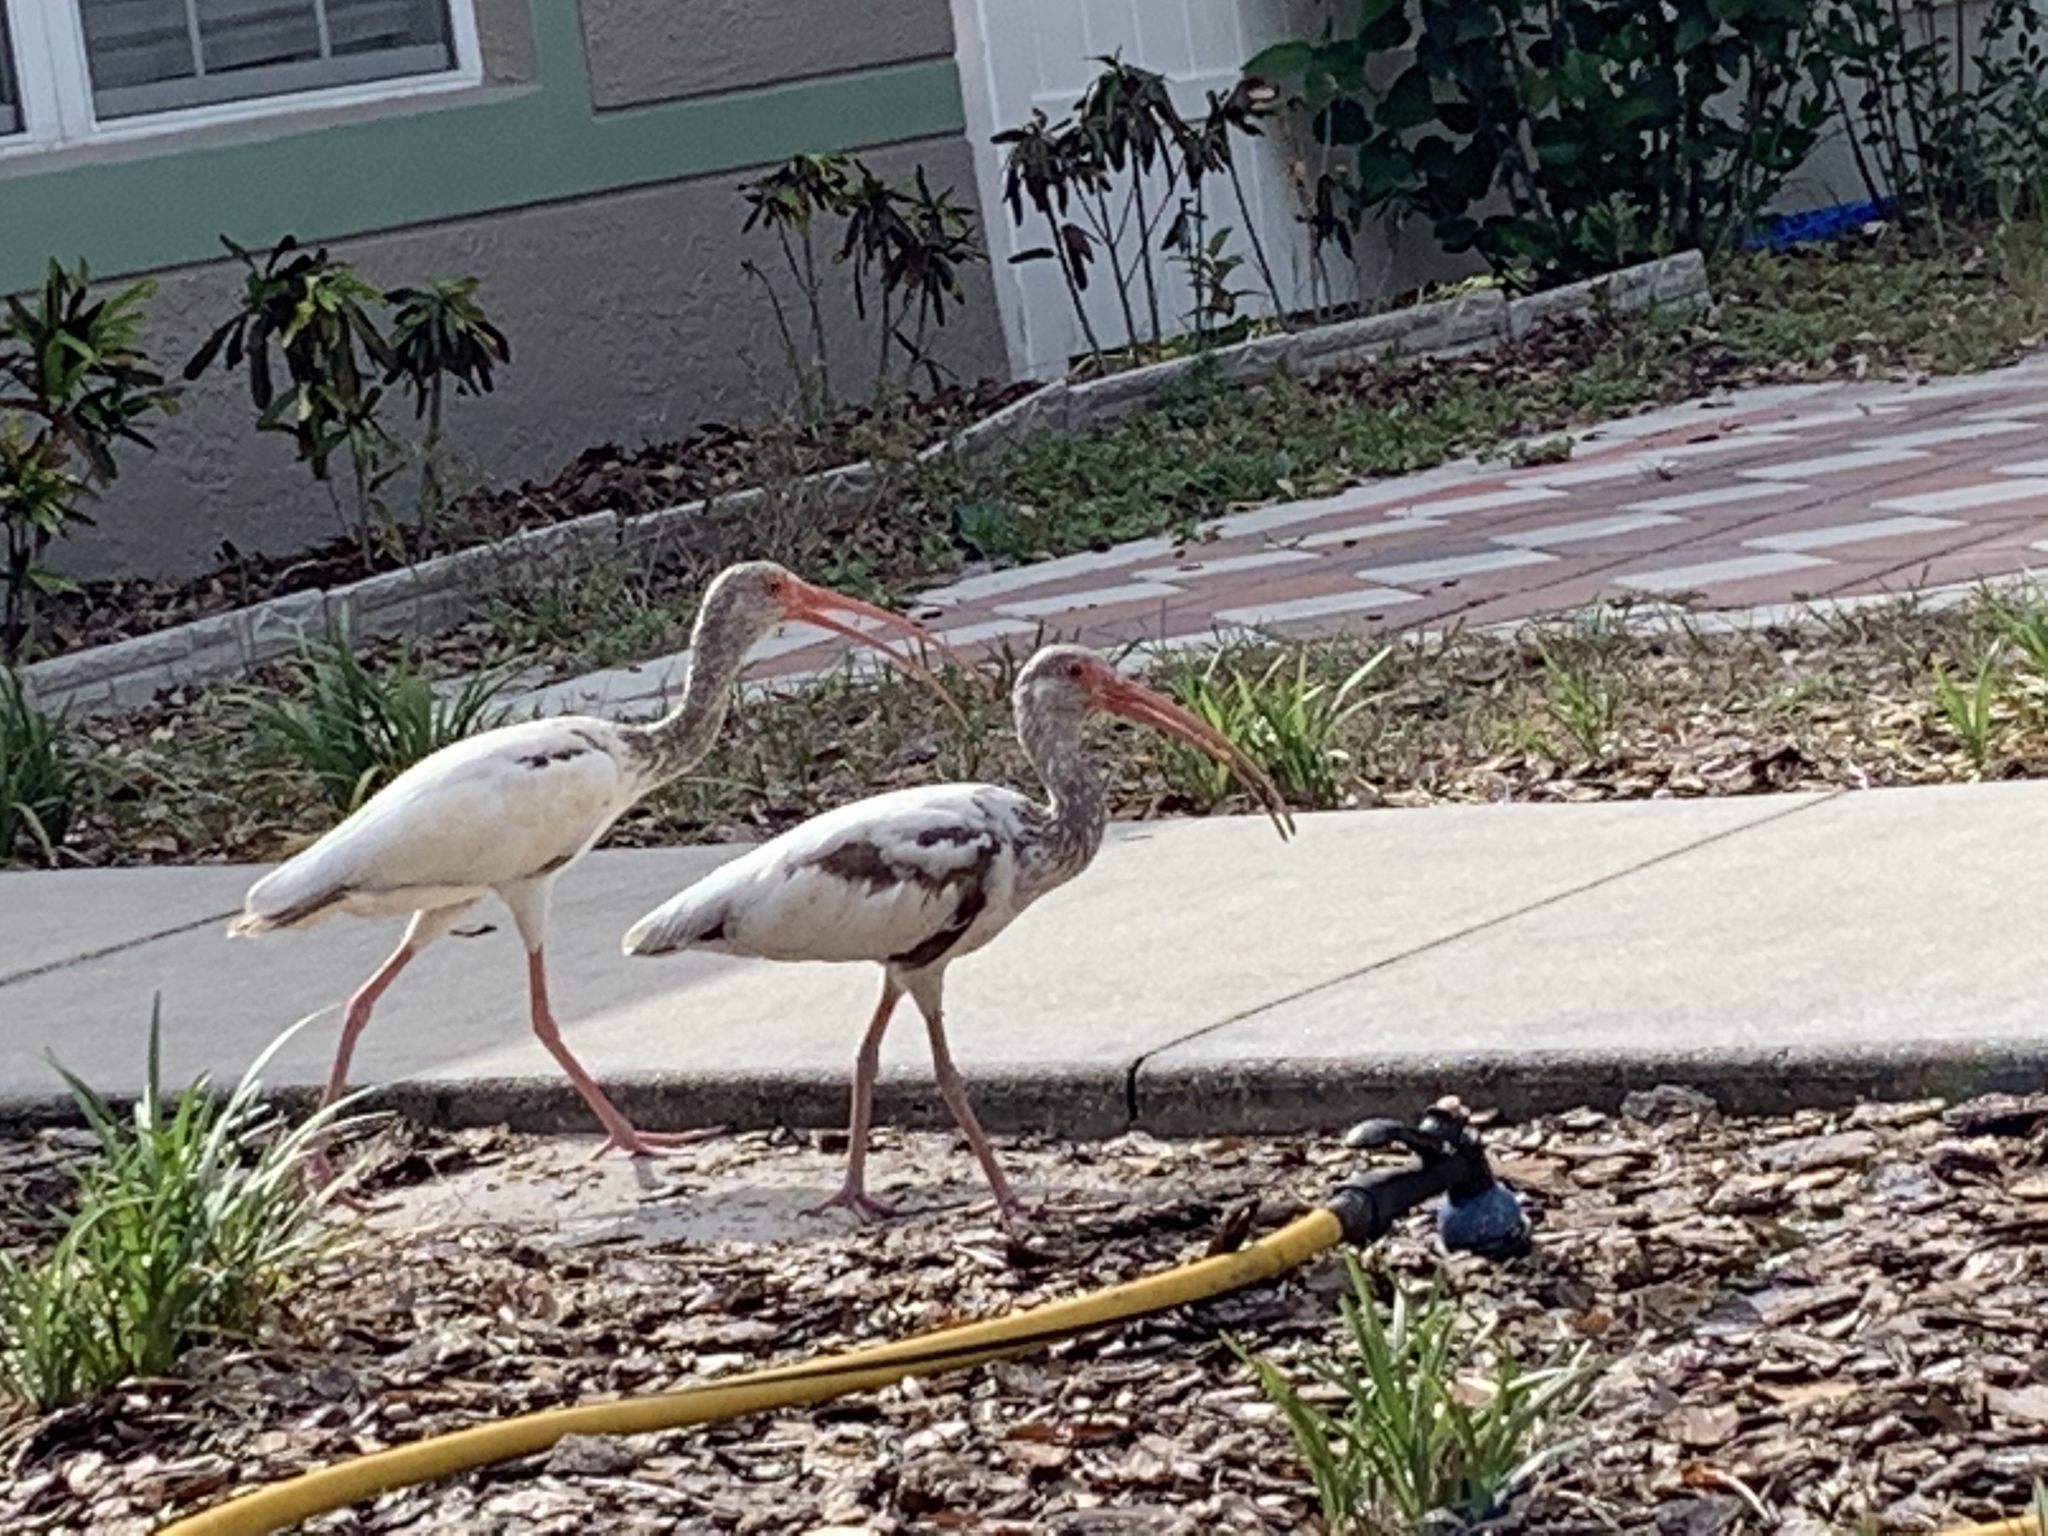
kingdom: Animalia
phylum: Chordata
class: Aves
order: Pelecaniformes
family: Threskiornithidae
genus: Eudocimus
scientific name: Eudocimus albus
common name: White ibis
